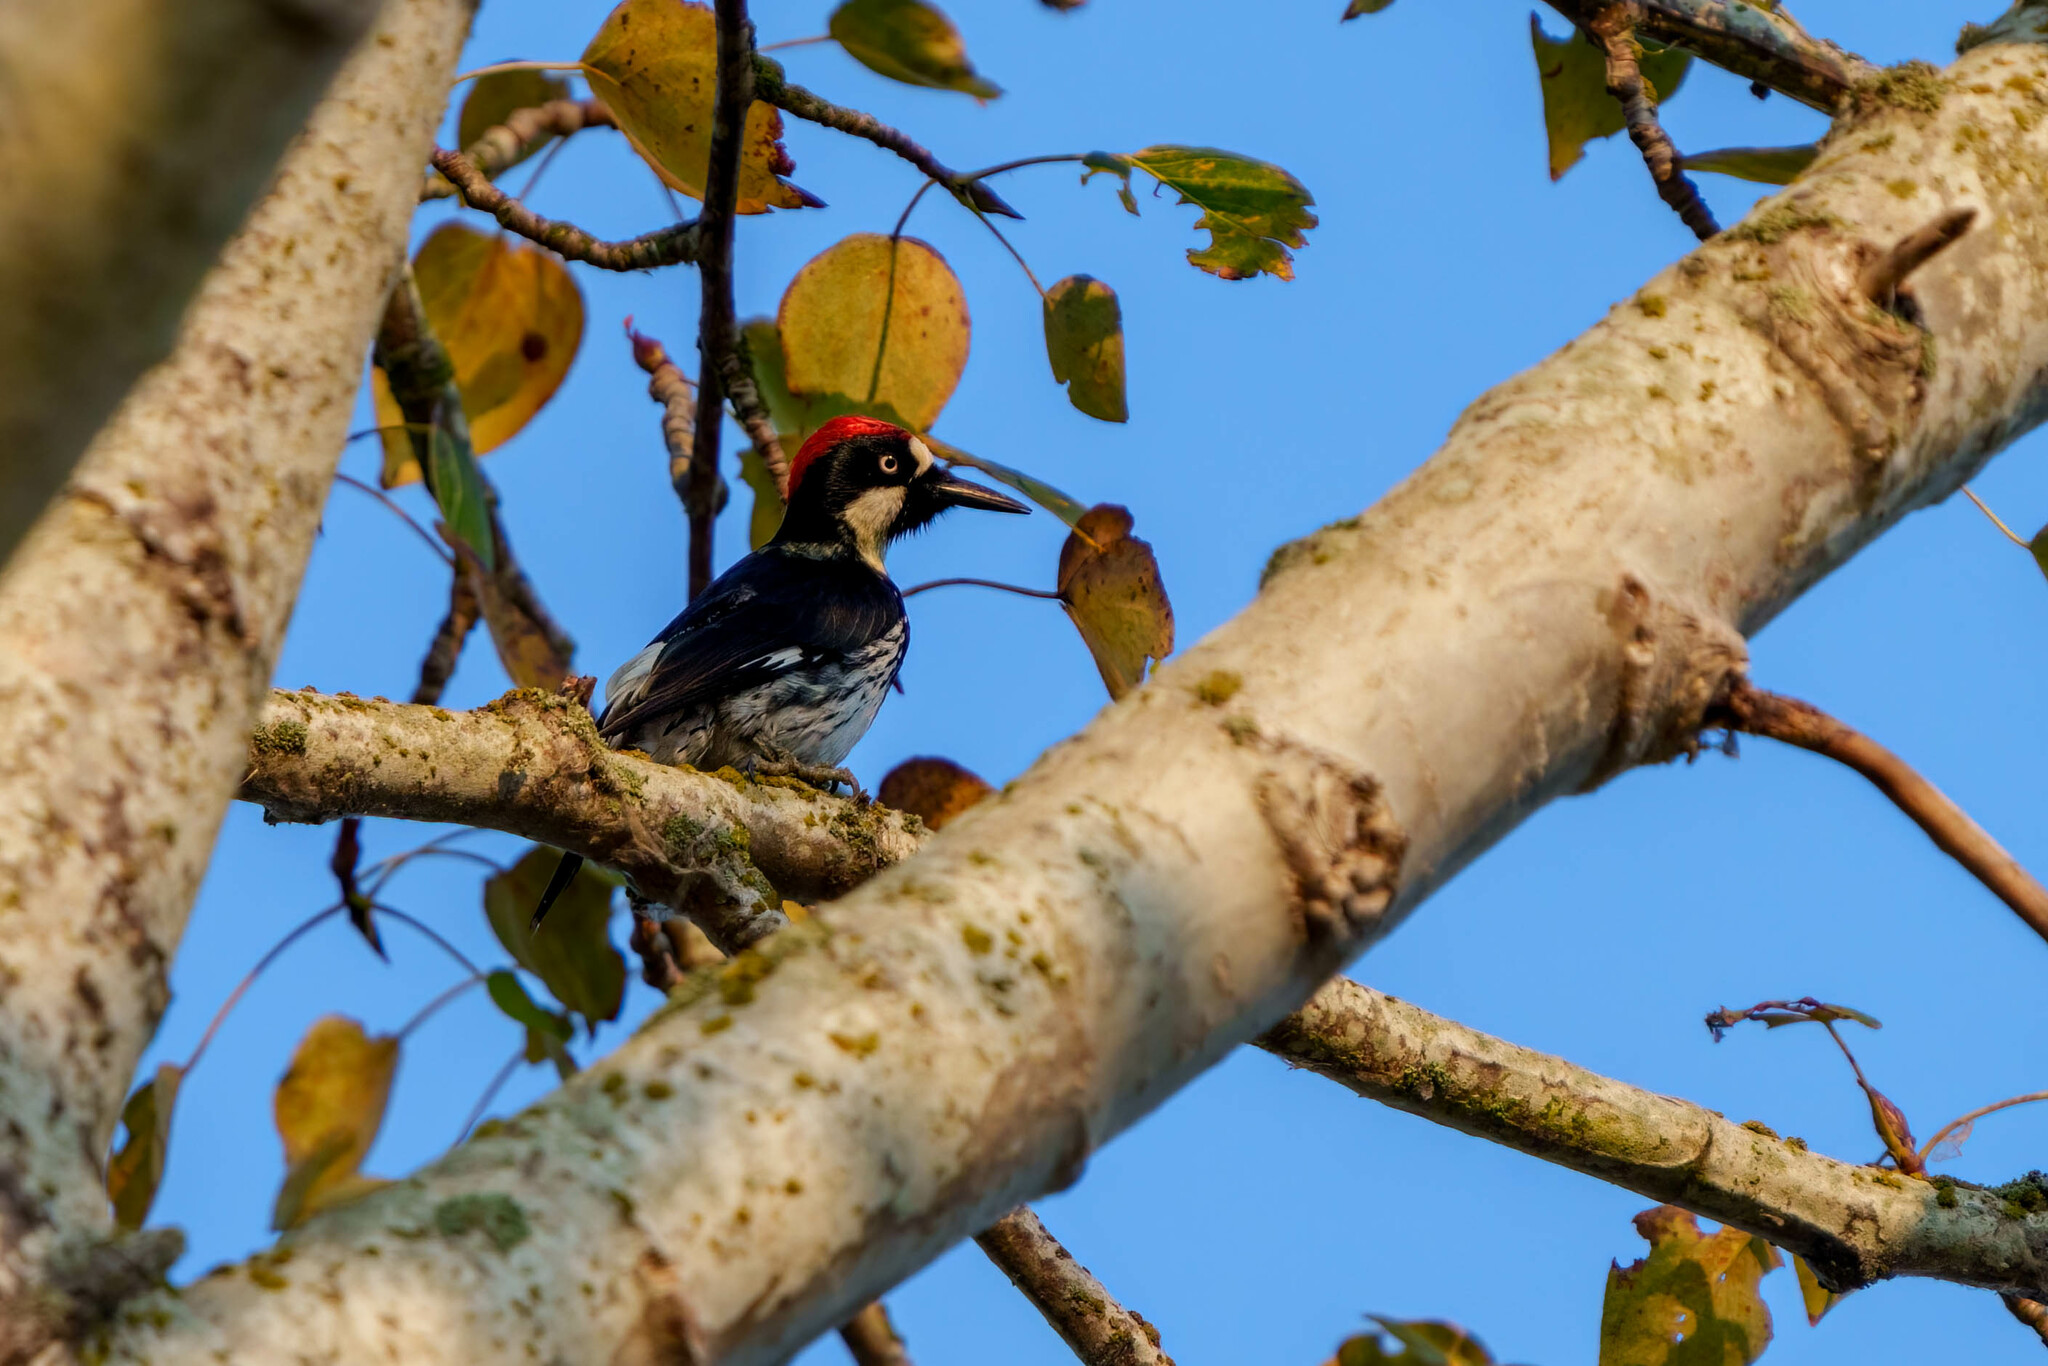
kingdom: Animalia
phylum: Chordata
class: Aves
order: Piciformes
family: Picidae
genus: Melanerpes
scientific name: Melanerpes formicivorus
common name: Acorn woodpecker
